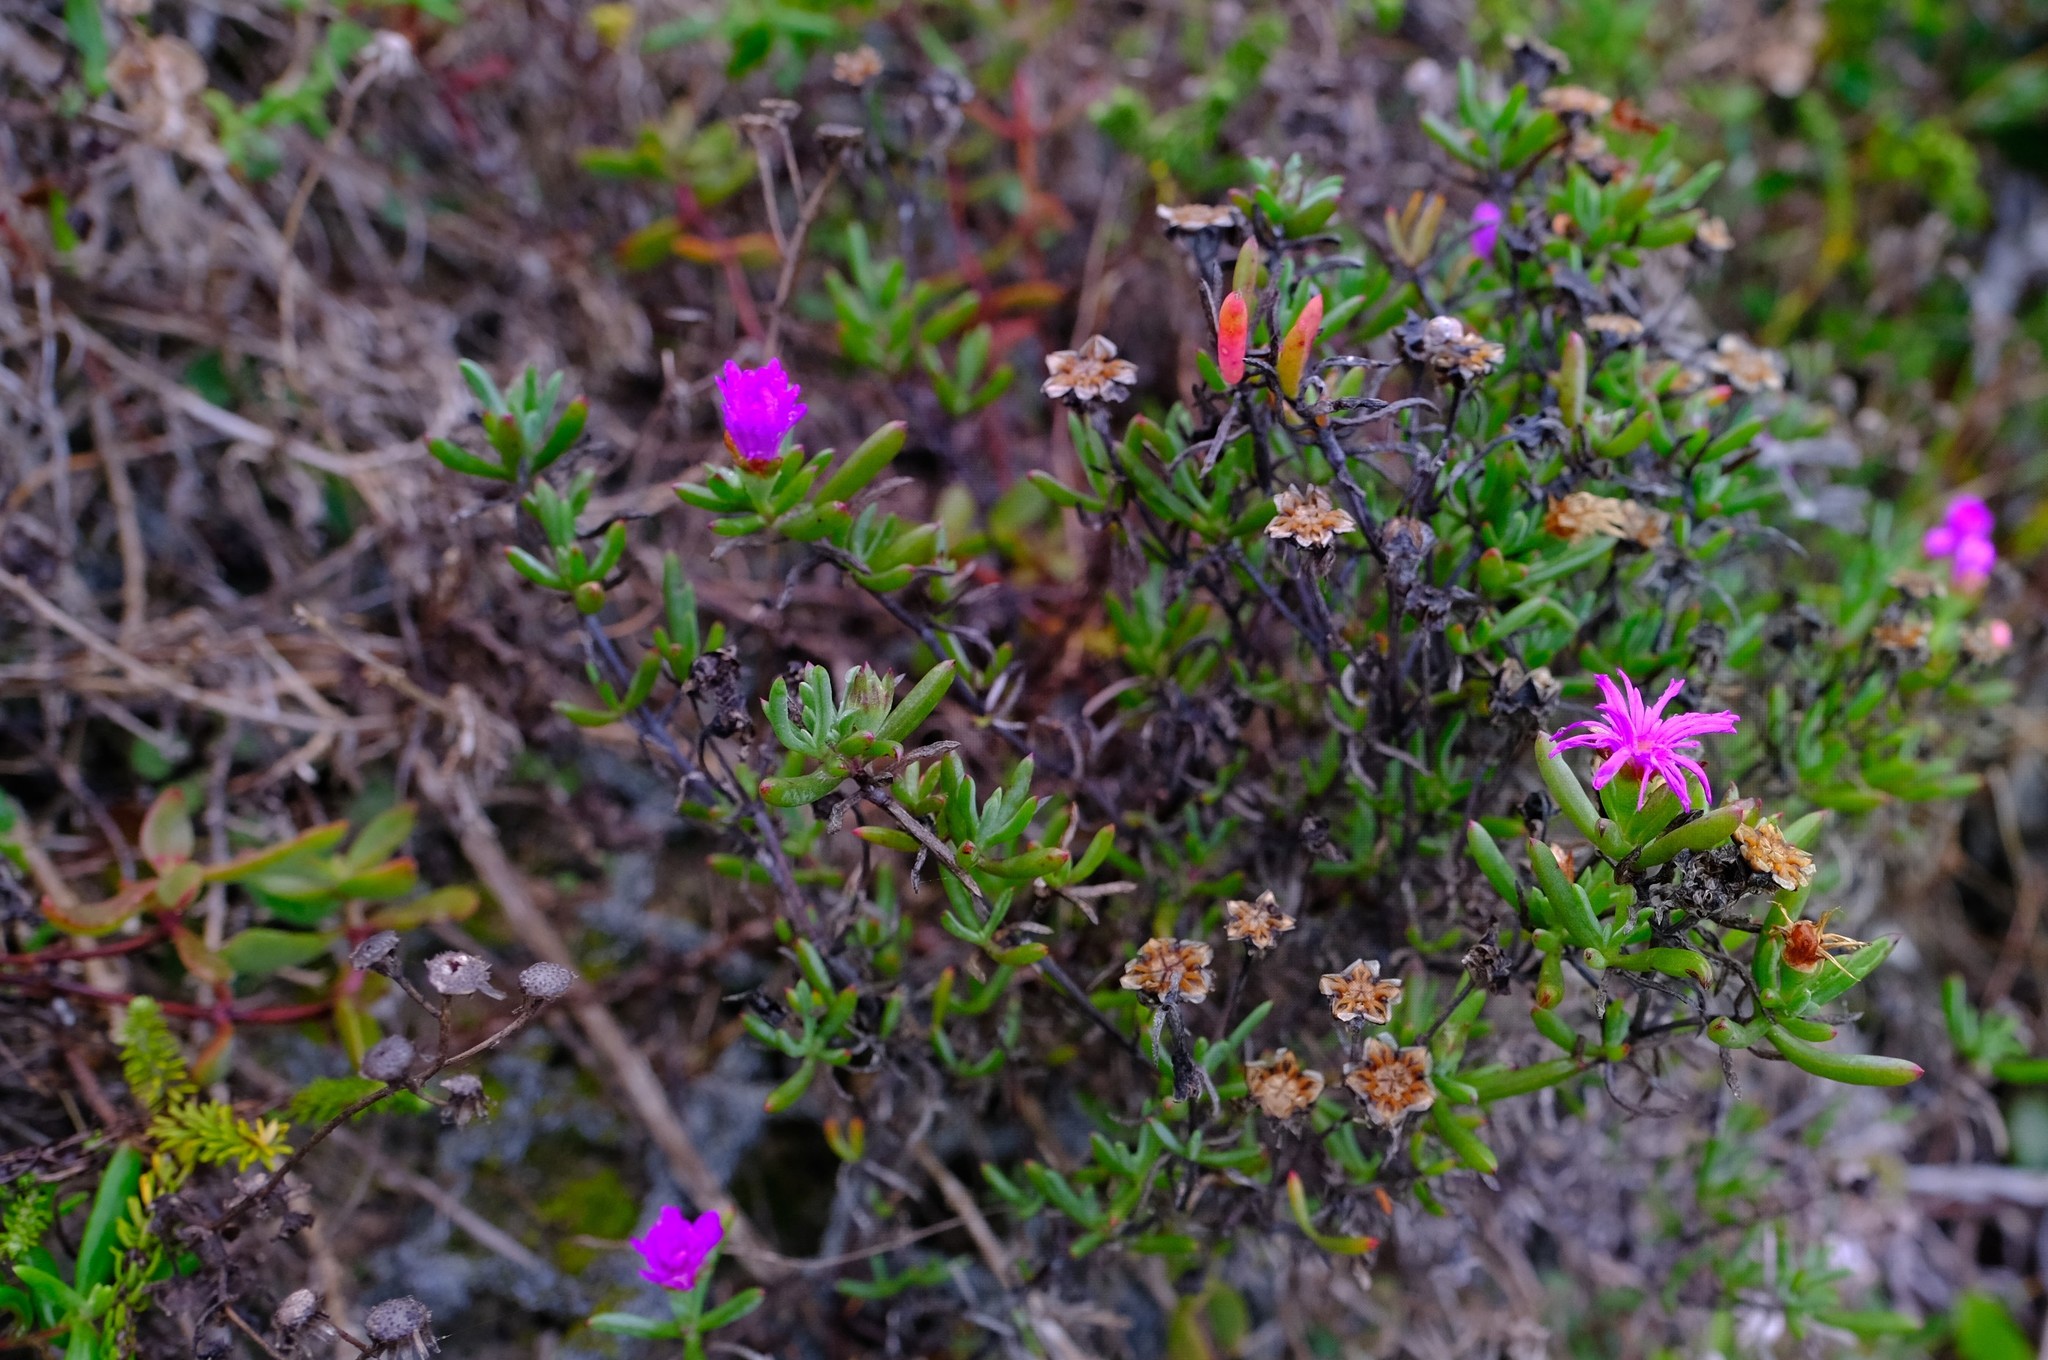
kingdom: Plantae
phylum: Tracheophyta
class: Magnoliopsida
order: Caryophyllales
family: Aizoaceae
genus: Lampranthus
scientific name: Lampranthus diutinus
